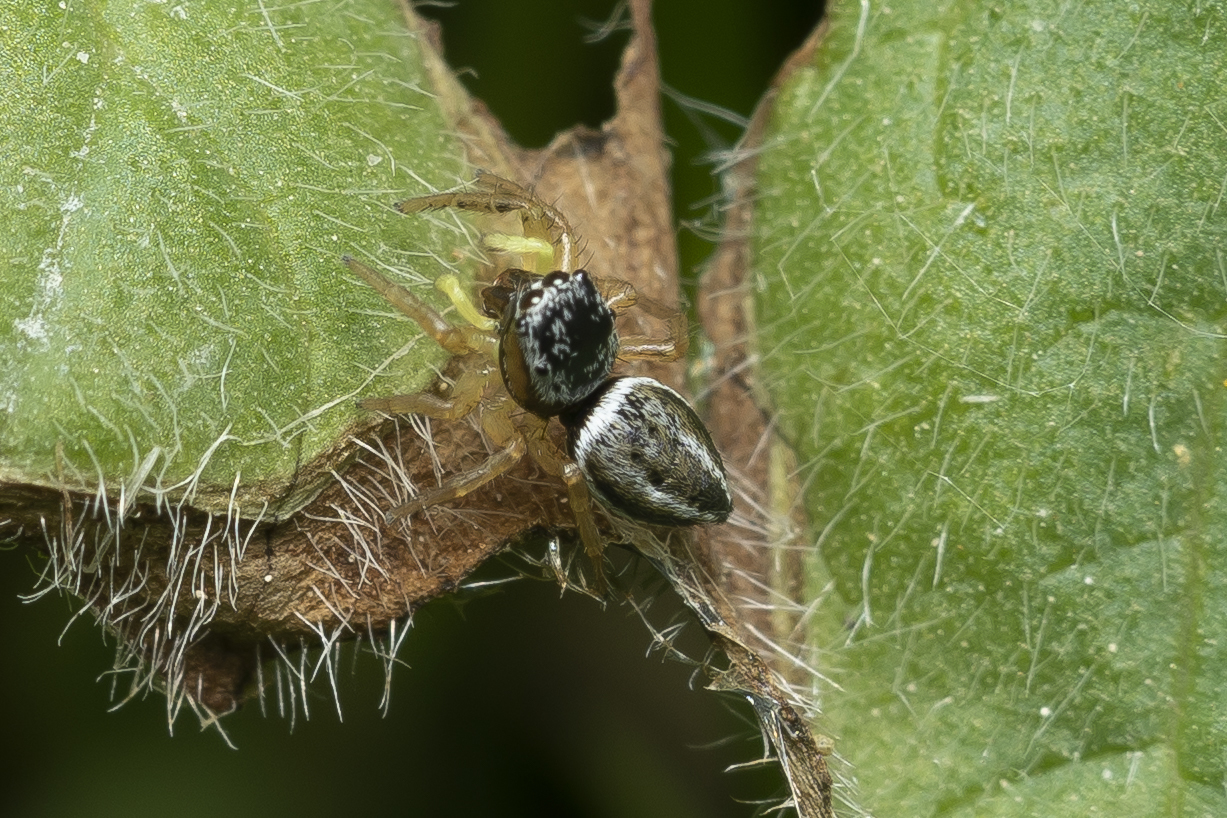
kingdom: Animalia
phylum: Arthropoda
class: Arachnida
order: Araneae
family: Salticidae
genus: Heliophanus
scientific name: Heliophanus equester
